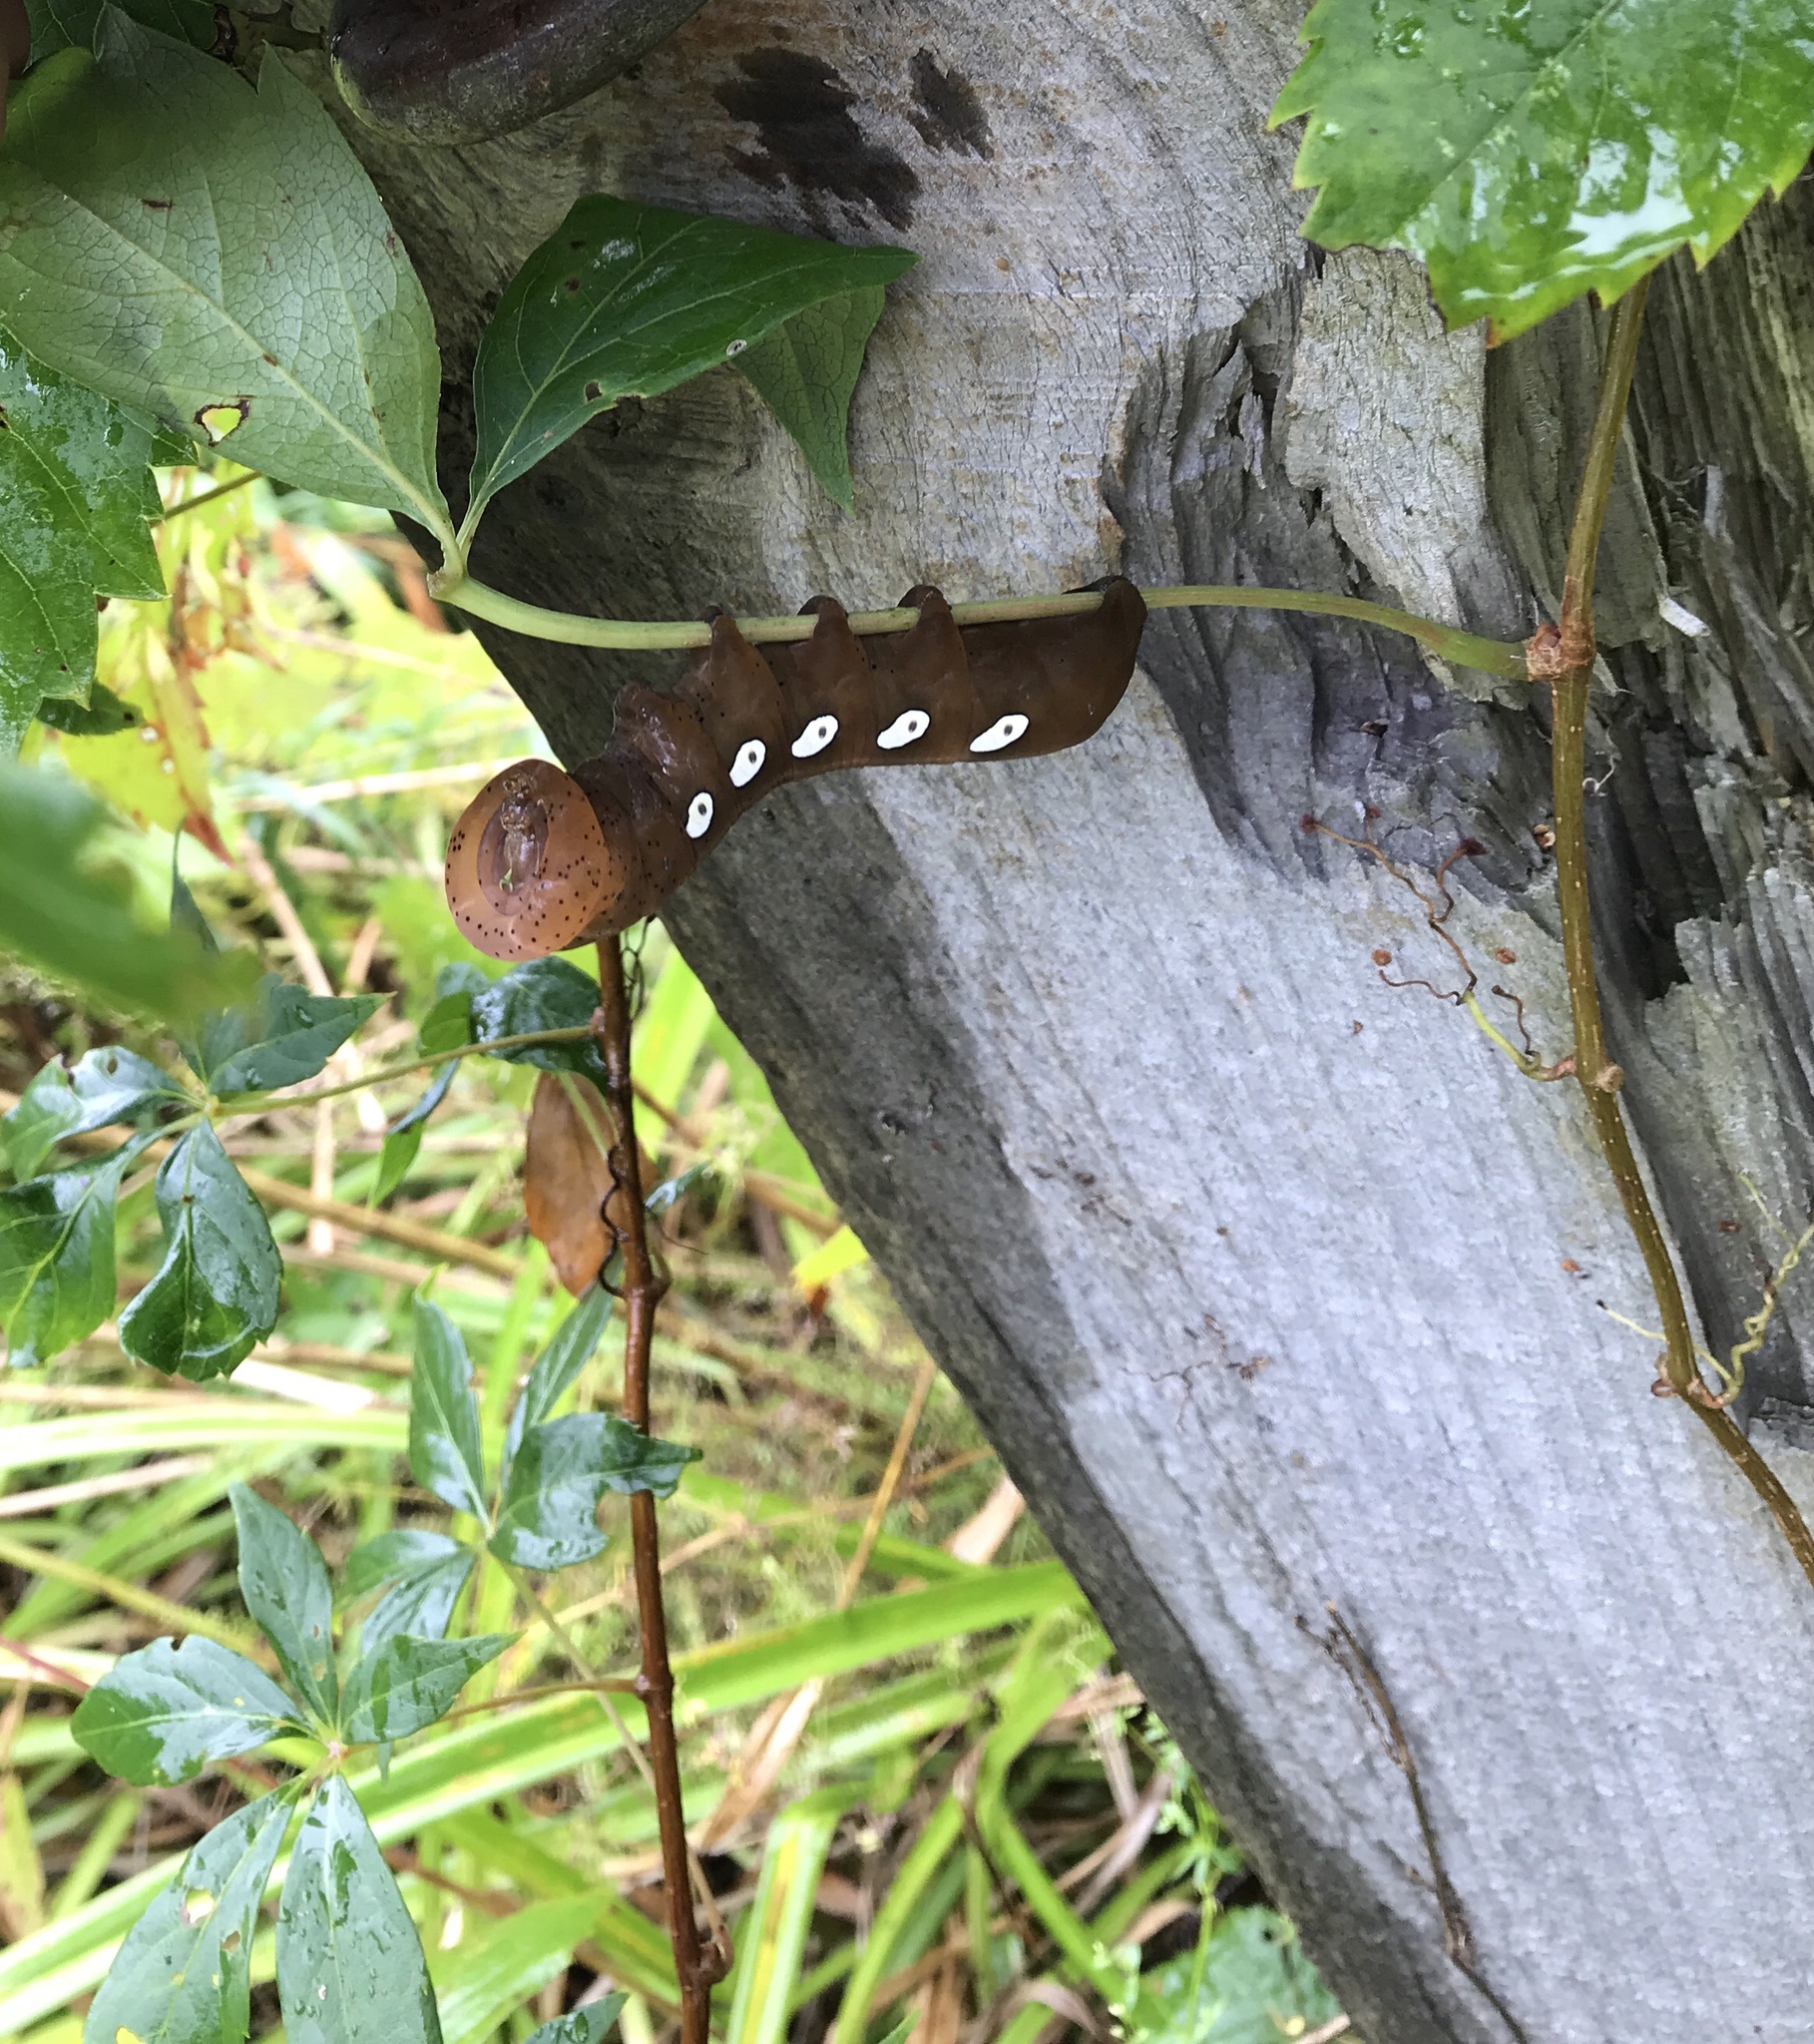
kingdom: Animalia
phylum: Arthropoda
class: Insecta
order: Lepidoptera
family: Sphingidae
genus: Eumorpha
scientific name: Eumorpha pandorus
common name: Pandora sphinx
